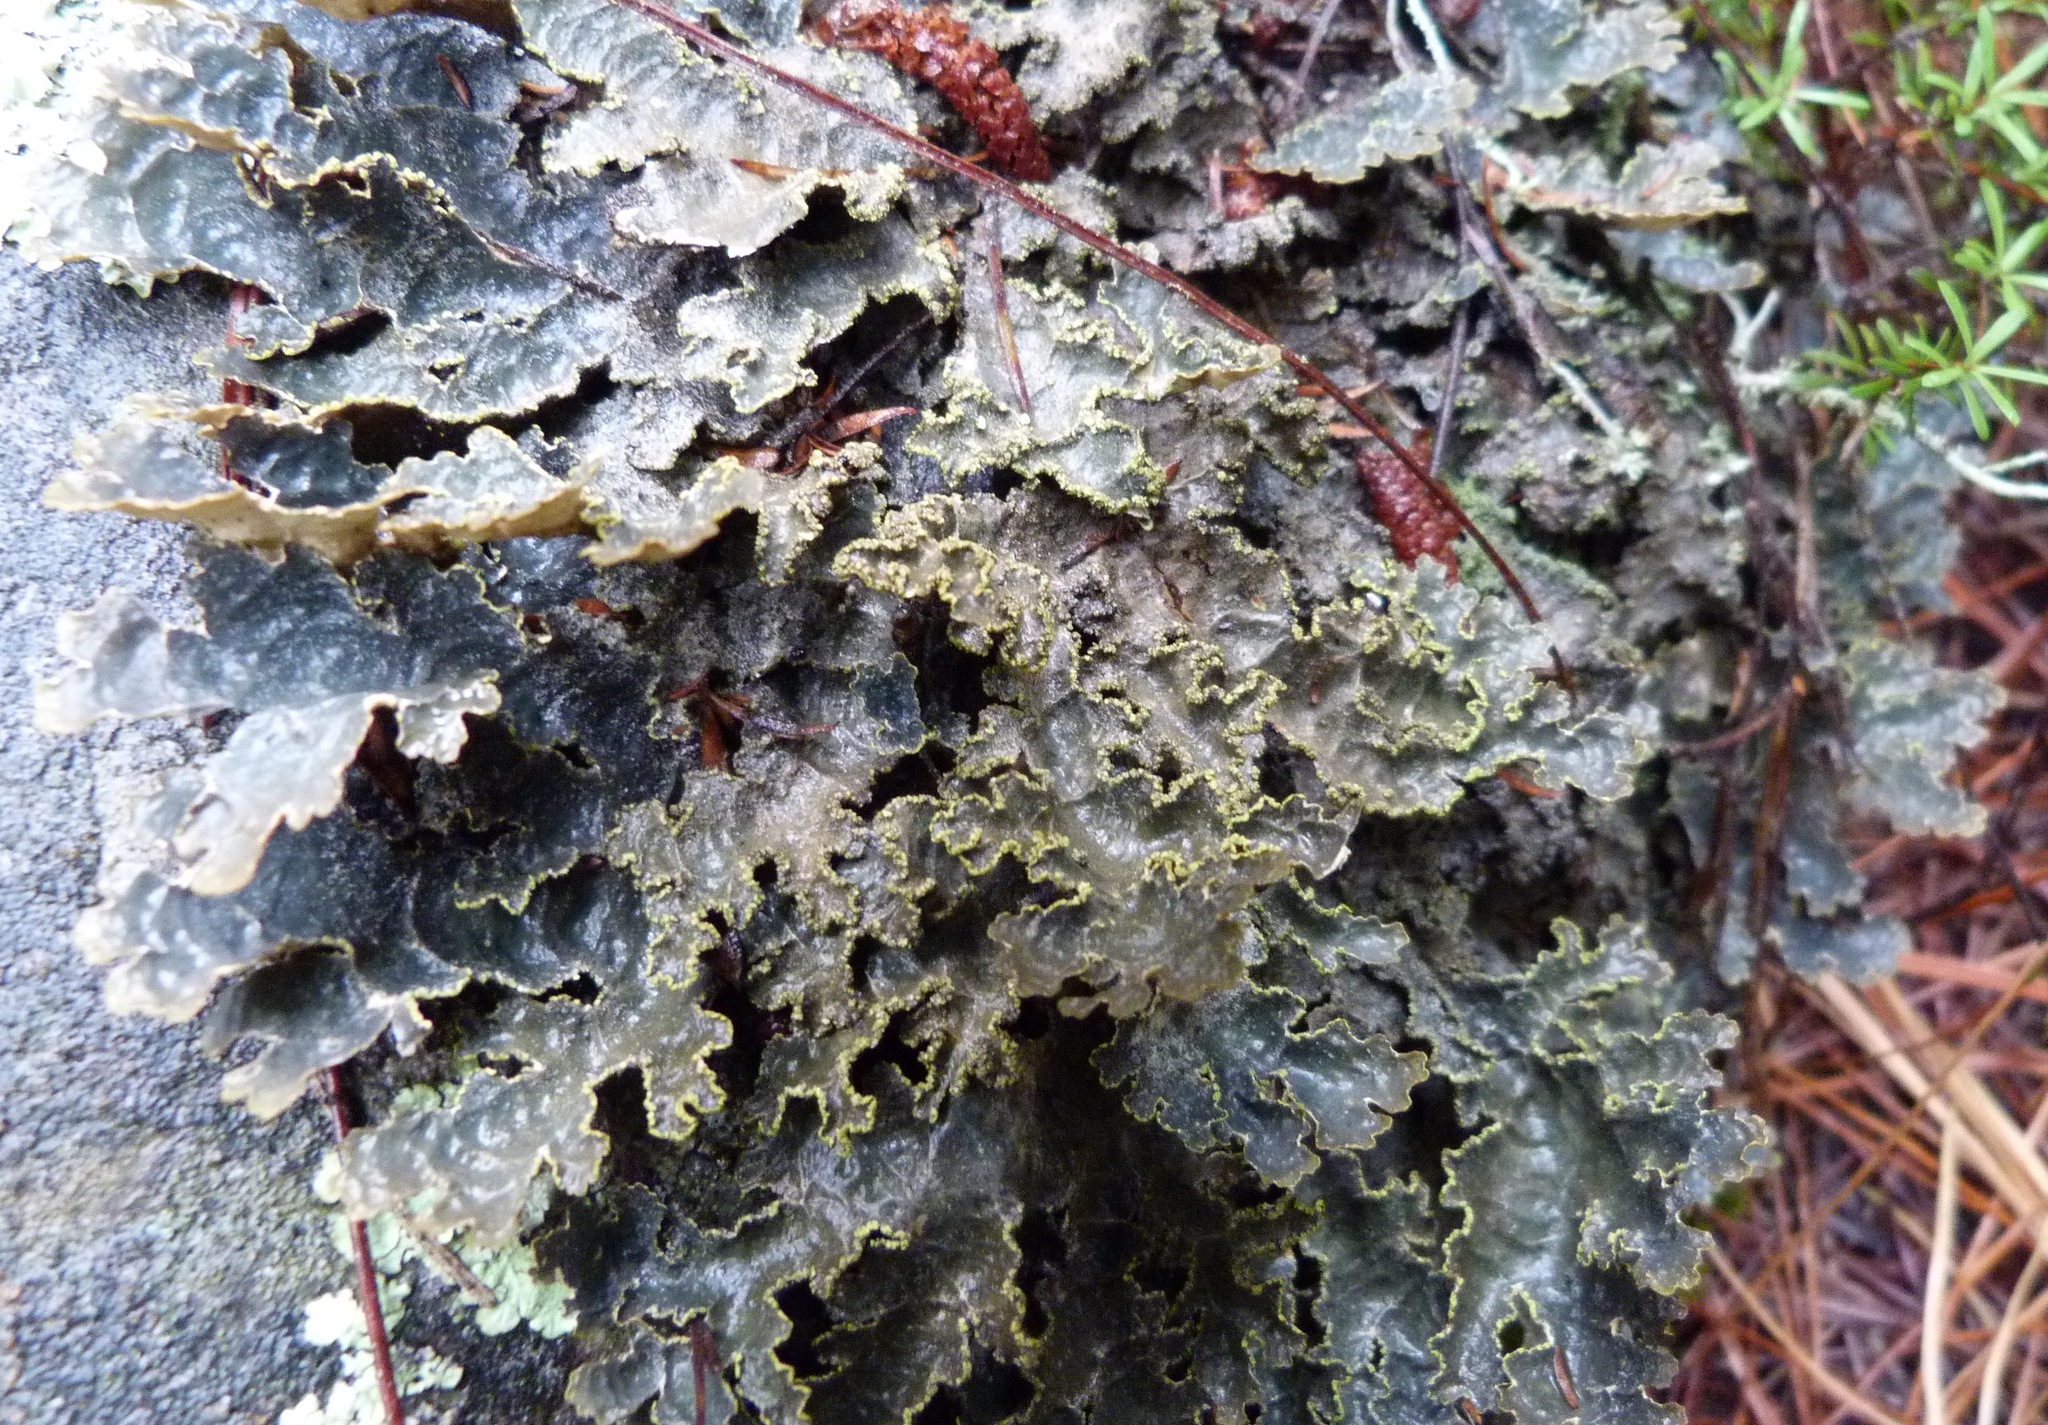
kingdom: Fungi
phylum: Ascomycota
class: Lecanoromycetes
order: Peltigerales
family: Lobariaceae
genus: Pseudocyphellaria
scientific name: Pseudocyphellaria crocata
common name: Golden specklebelly
